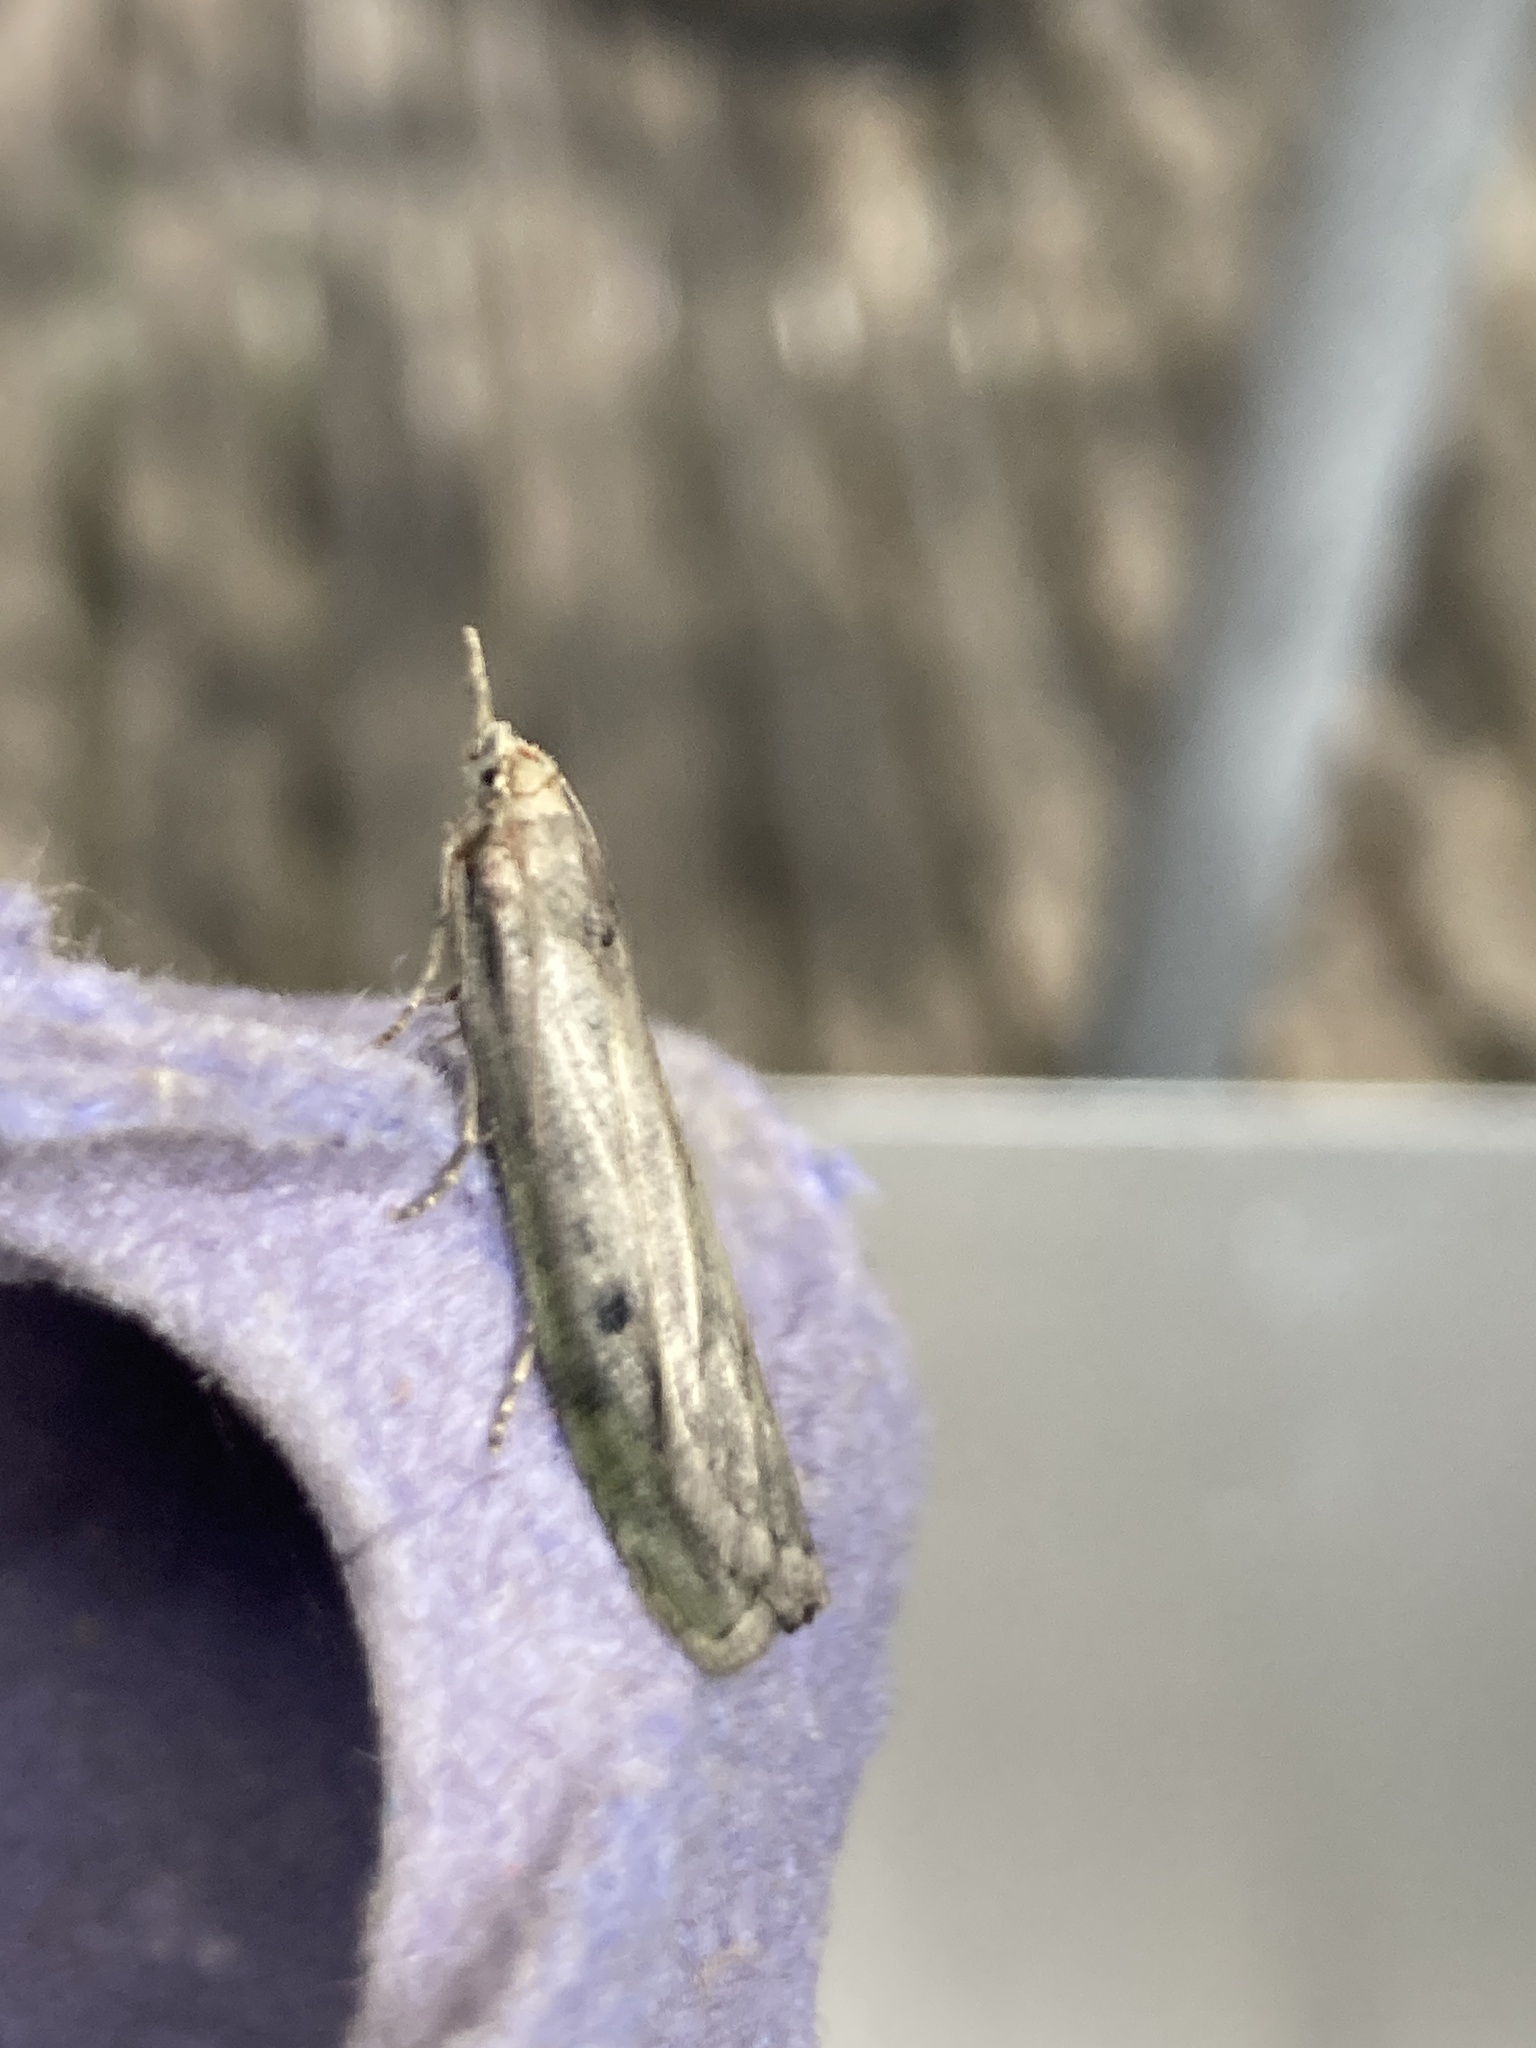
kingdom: Animalia
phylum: Arthropoda
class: Insecta
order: Lepidoptera
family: Pyralidae
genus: Aphomia
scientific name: Aphomia sociella
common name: Bee moth
